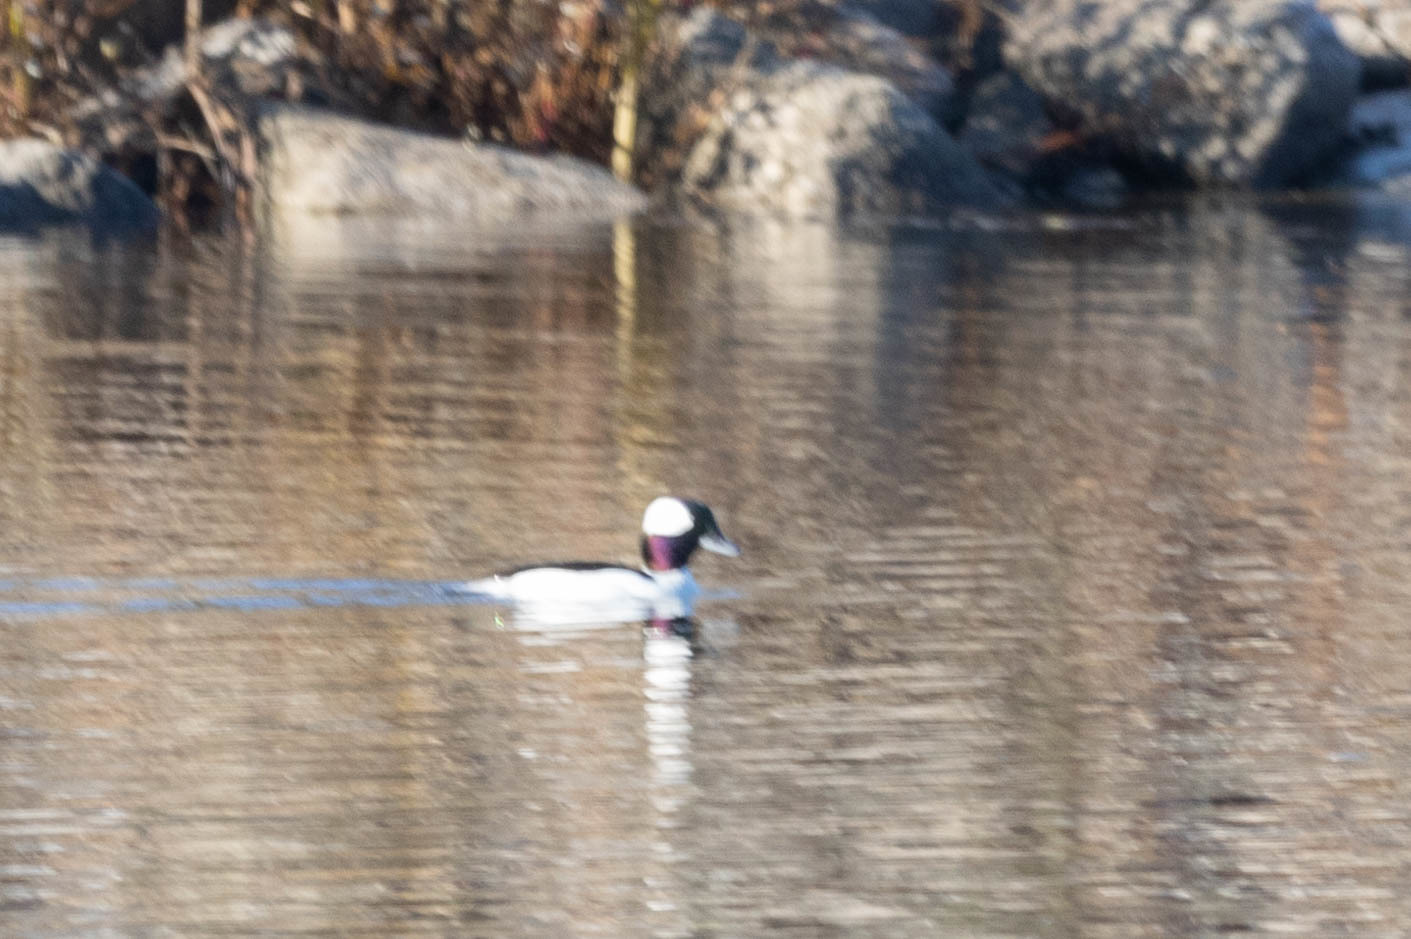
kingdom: Animalia
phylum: Chordata
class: Aves
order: Anseriformes
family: Anatidae
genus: Bucephala
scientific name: Bucephala albeola
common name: Bufflehead
